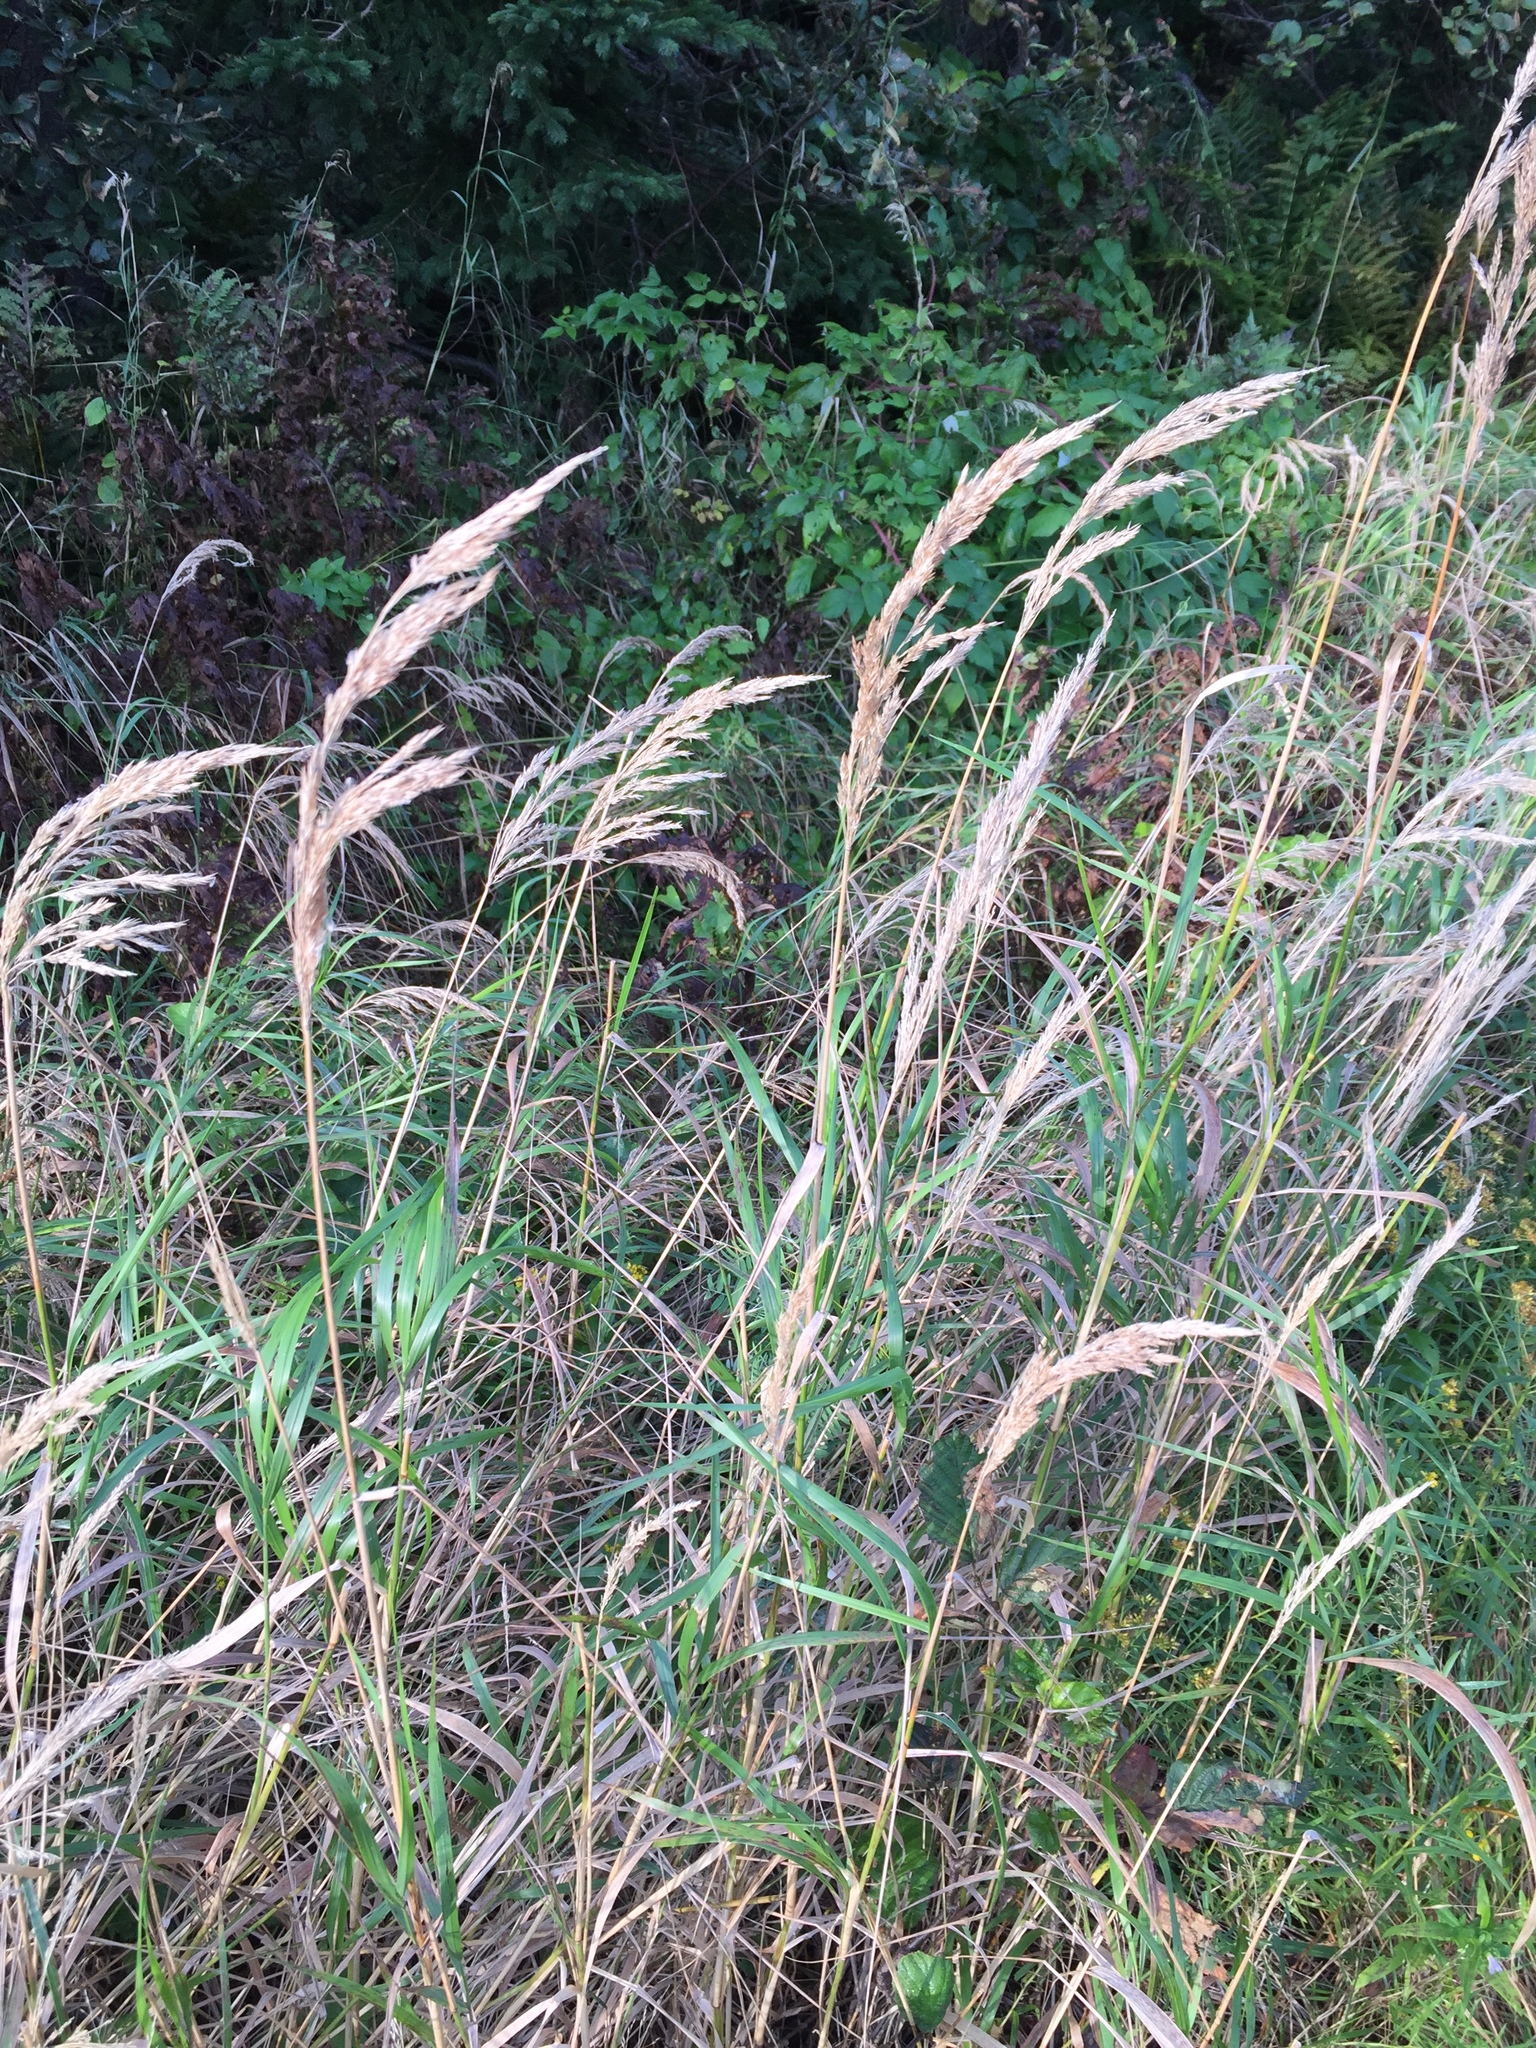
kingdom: Plantae
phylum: Tracheophyta
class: Liliopsida
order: Poales
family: Poaceae
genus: Calamagrostis
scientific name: Calamagrostis canadensis
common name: Canada bluejoint
